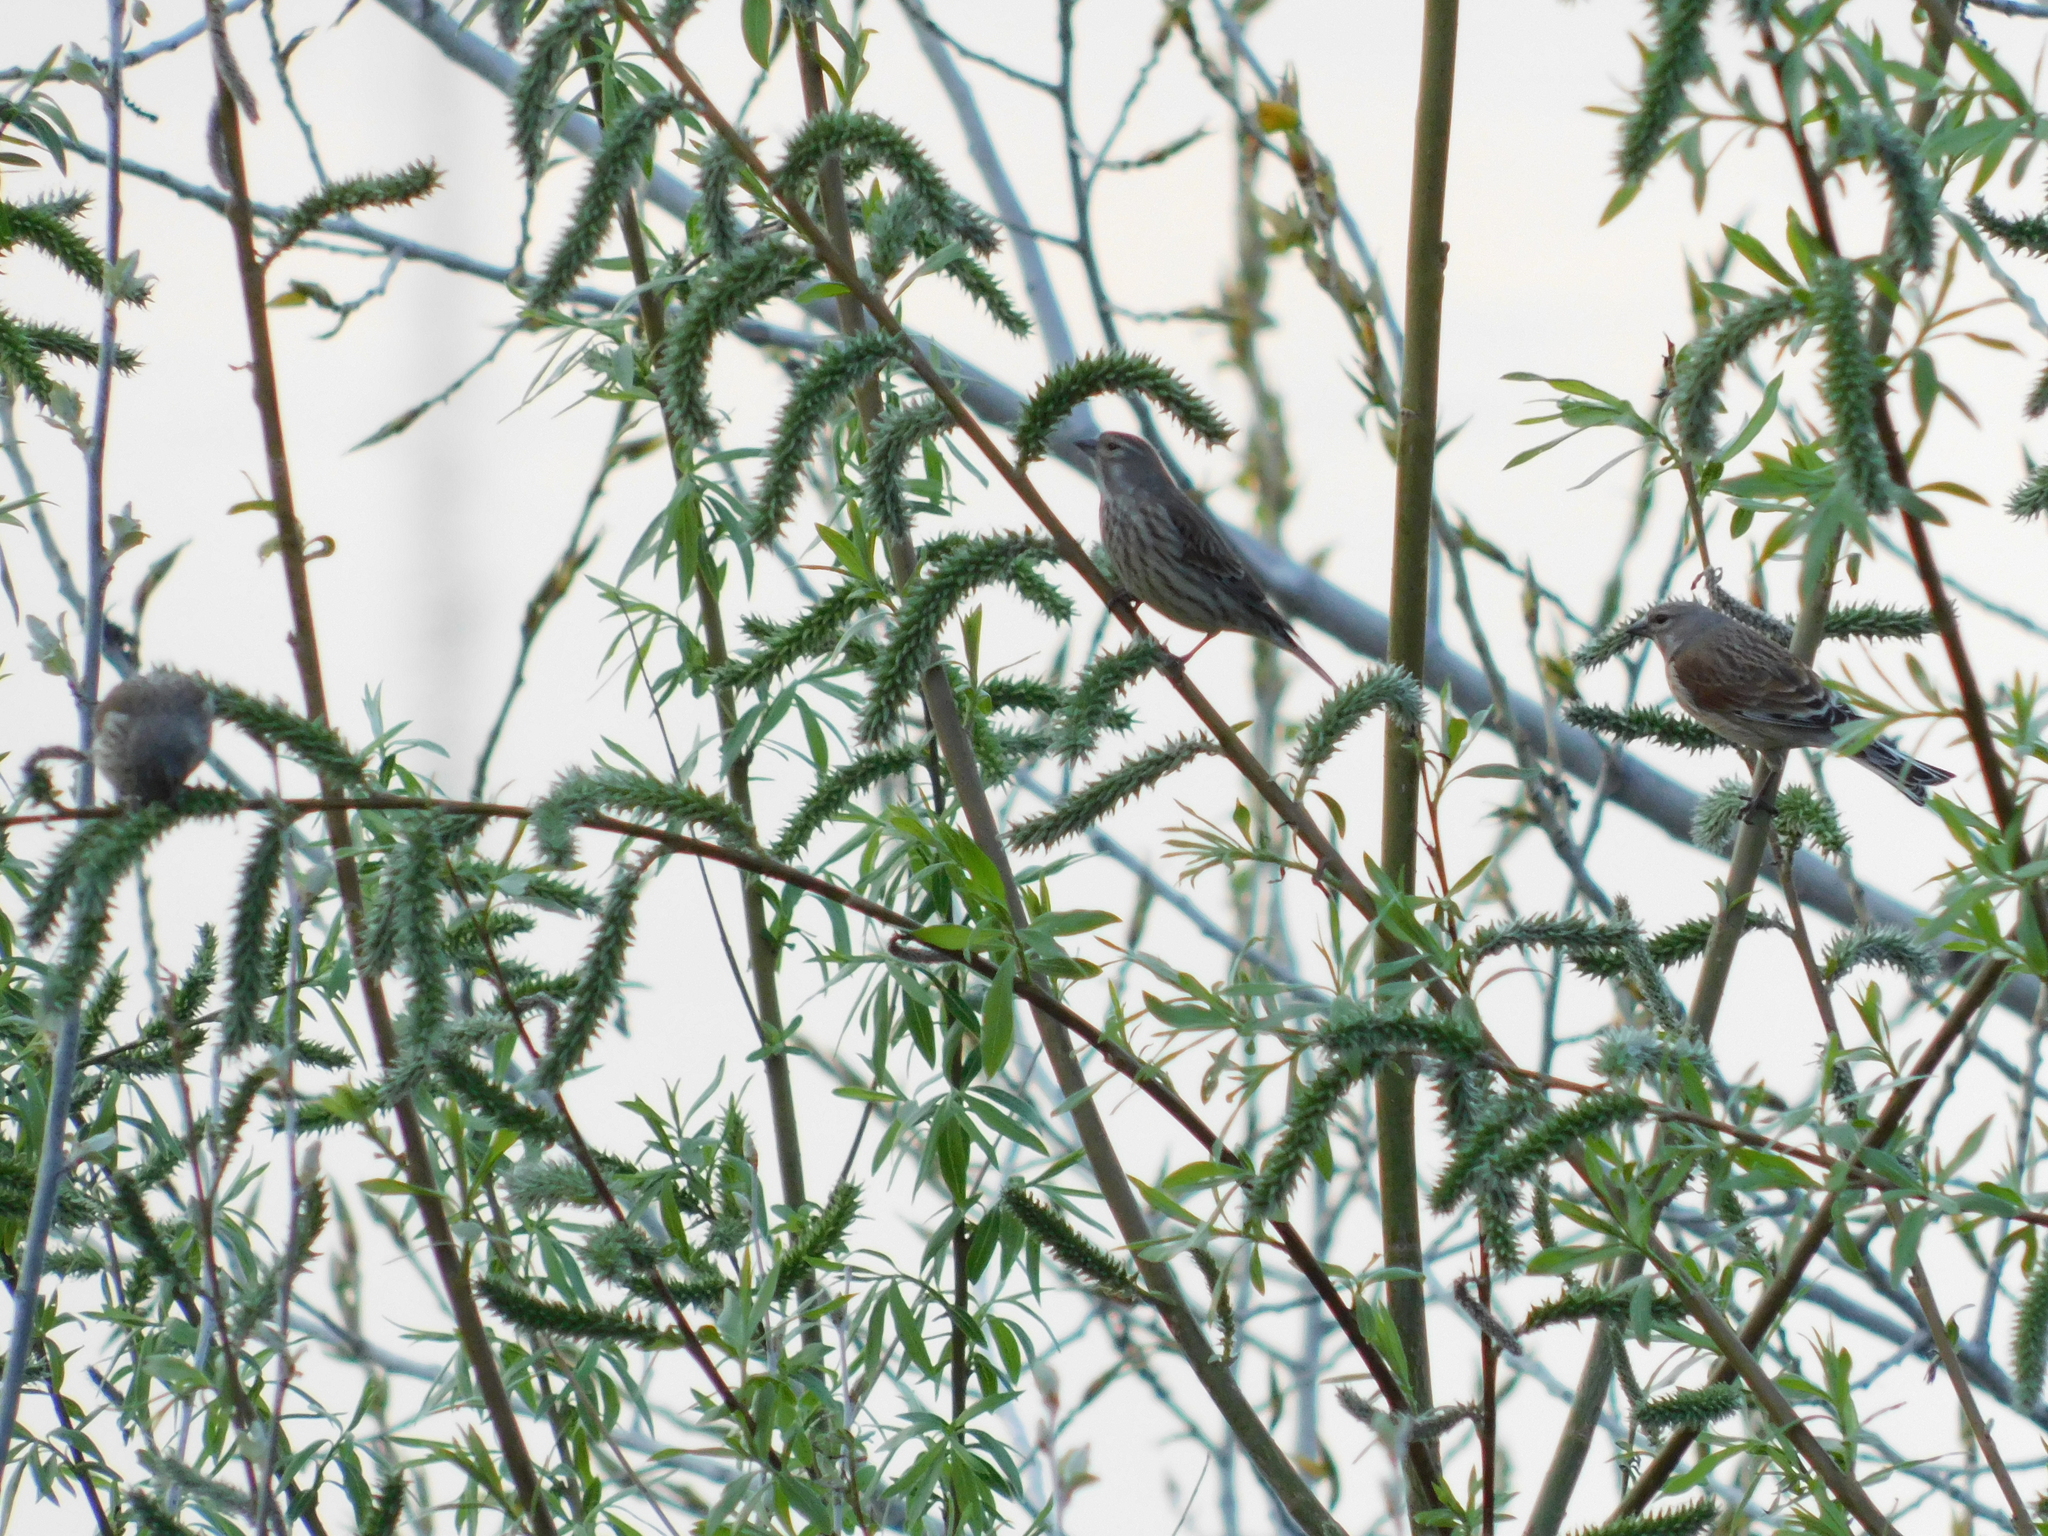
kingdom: Animalia
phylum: Chordata
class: Aves
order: Passeriformes
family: Fringillidae
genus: Linaria
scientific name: Linaria cannabina
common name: Common linnet
